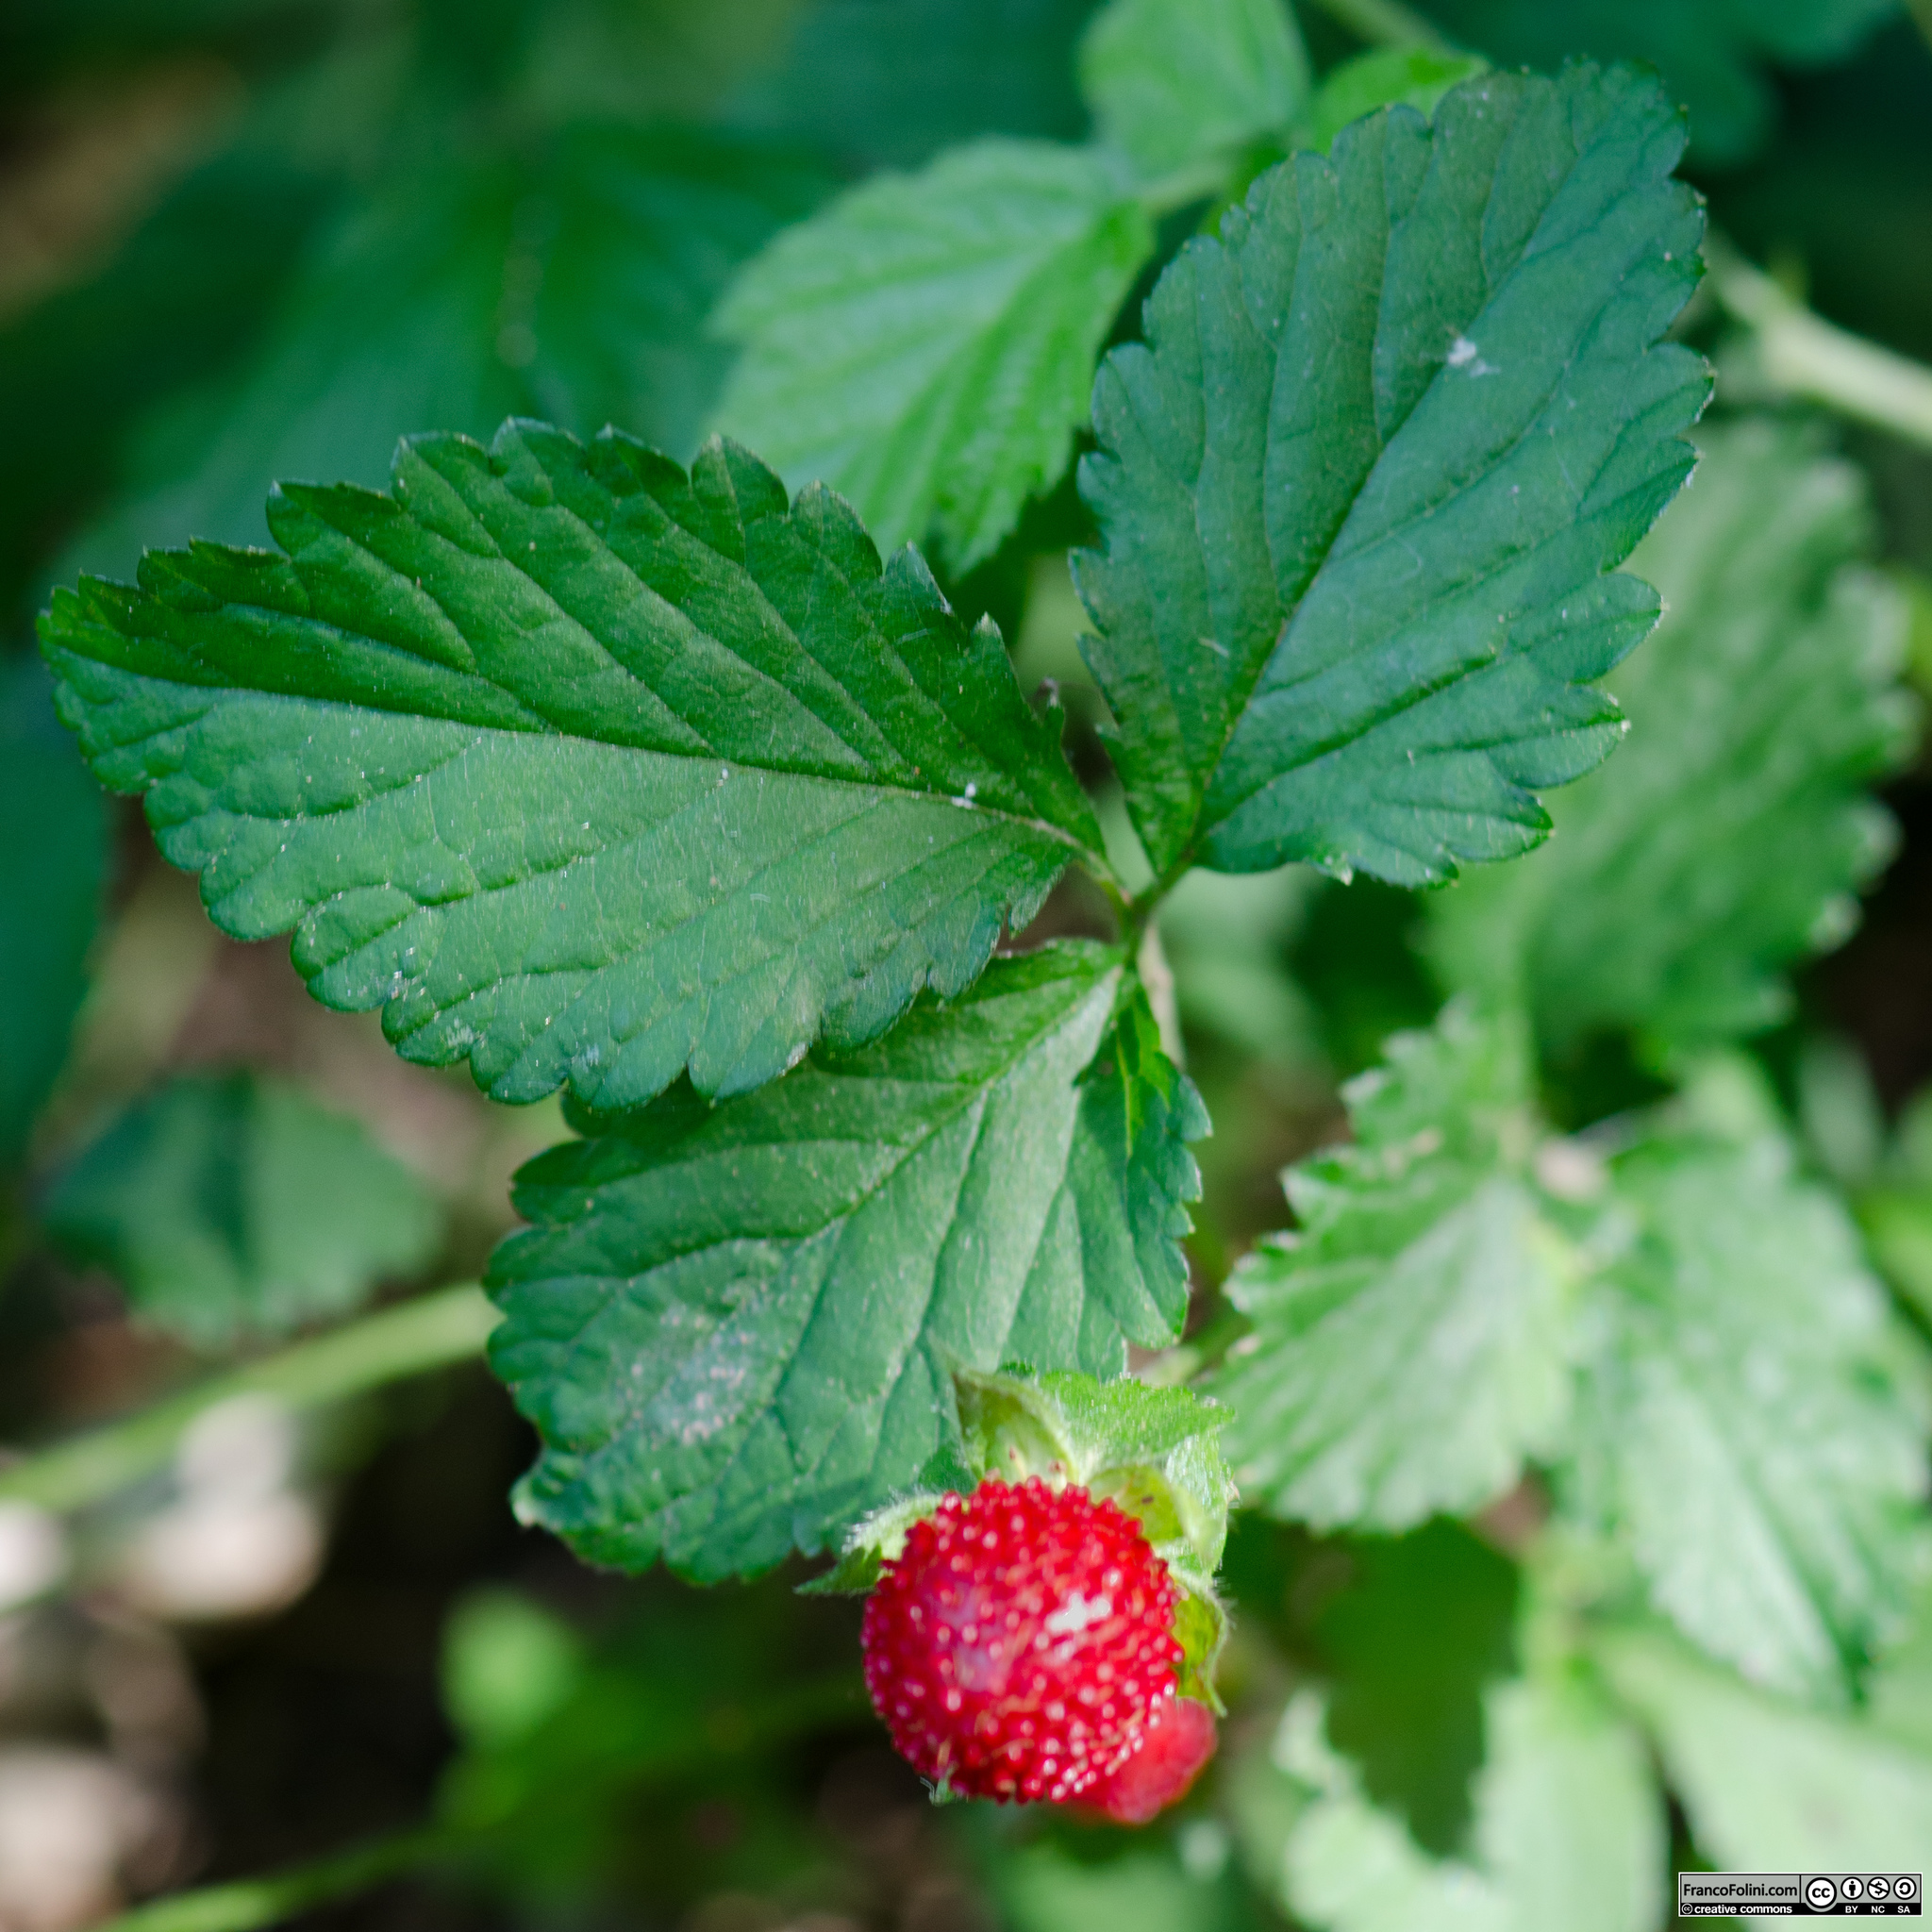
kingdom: Plantae
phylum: Tracheophyta
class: Magnoliopsida
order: Rosales
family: Rosaceae
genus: Potentilla
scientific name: Potentilla indica
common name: Yellow-flowered strawberry
